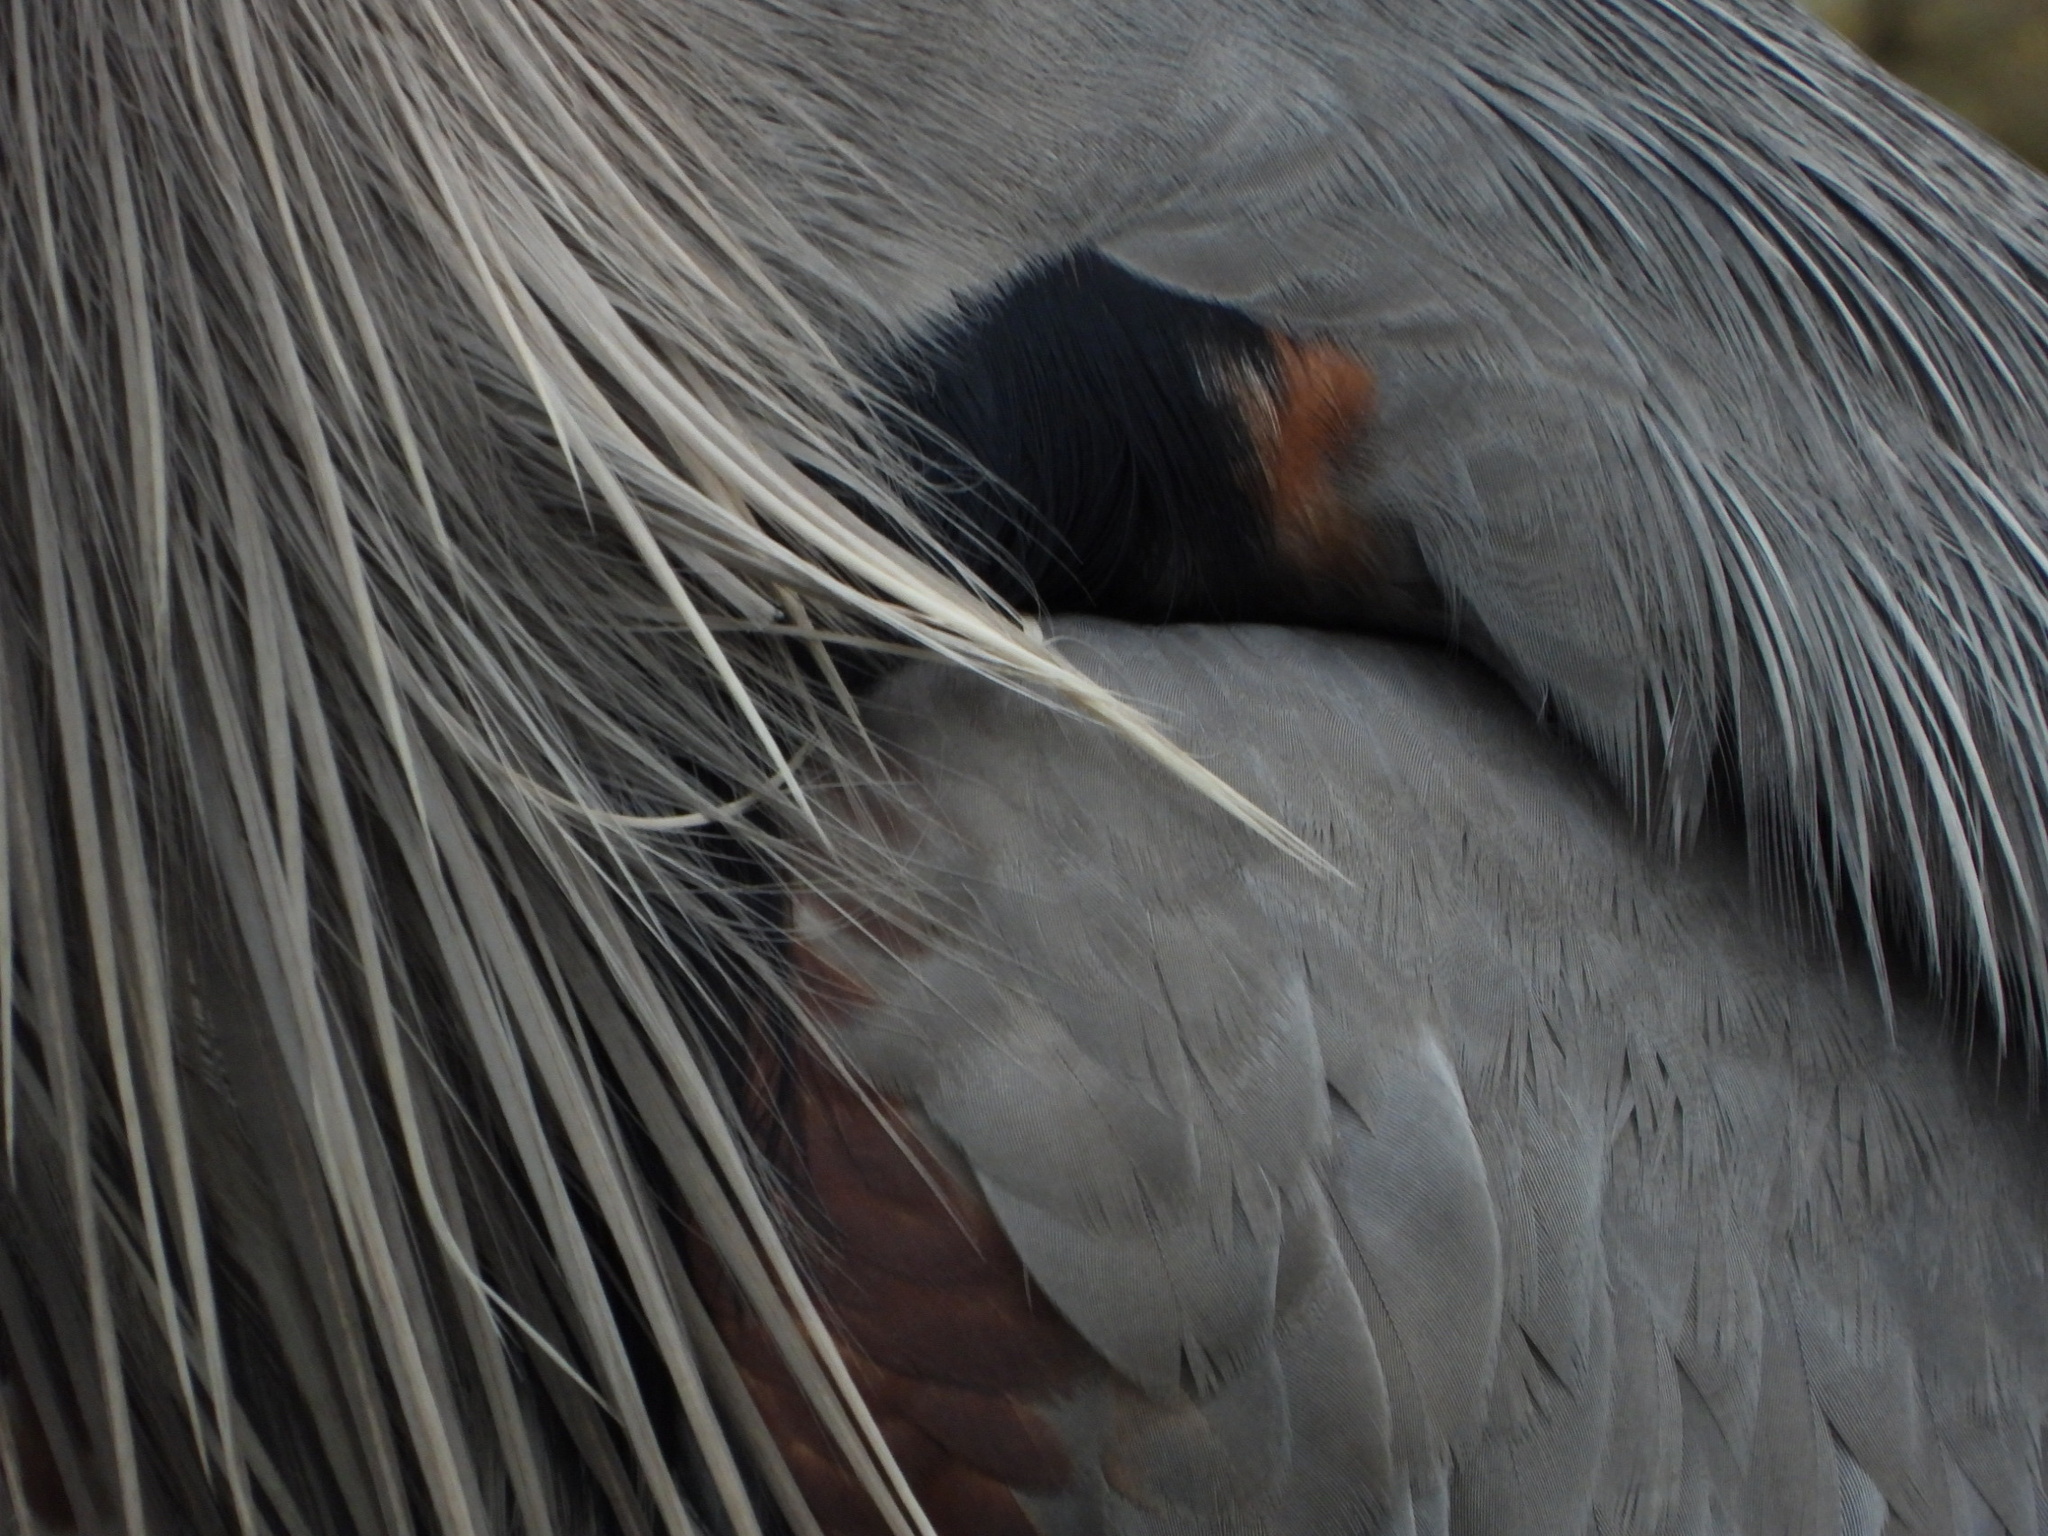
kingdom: Animalia
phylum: Chordata
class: Aves
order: Pelecaniformes
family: Ardeidae
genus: Ardea
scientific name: Ardea herodias
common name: Great blue heron
